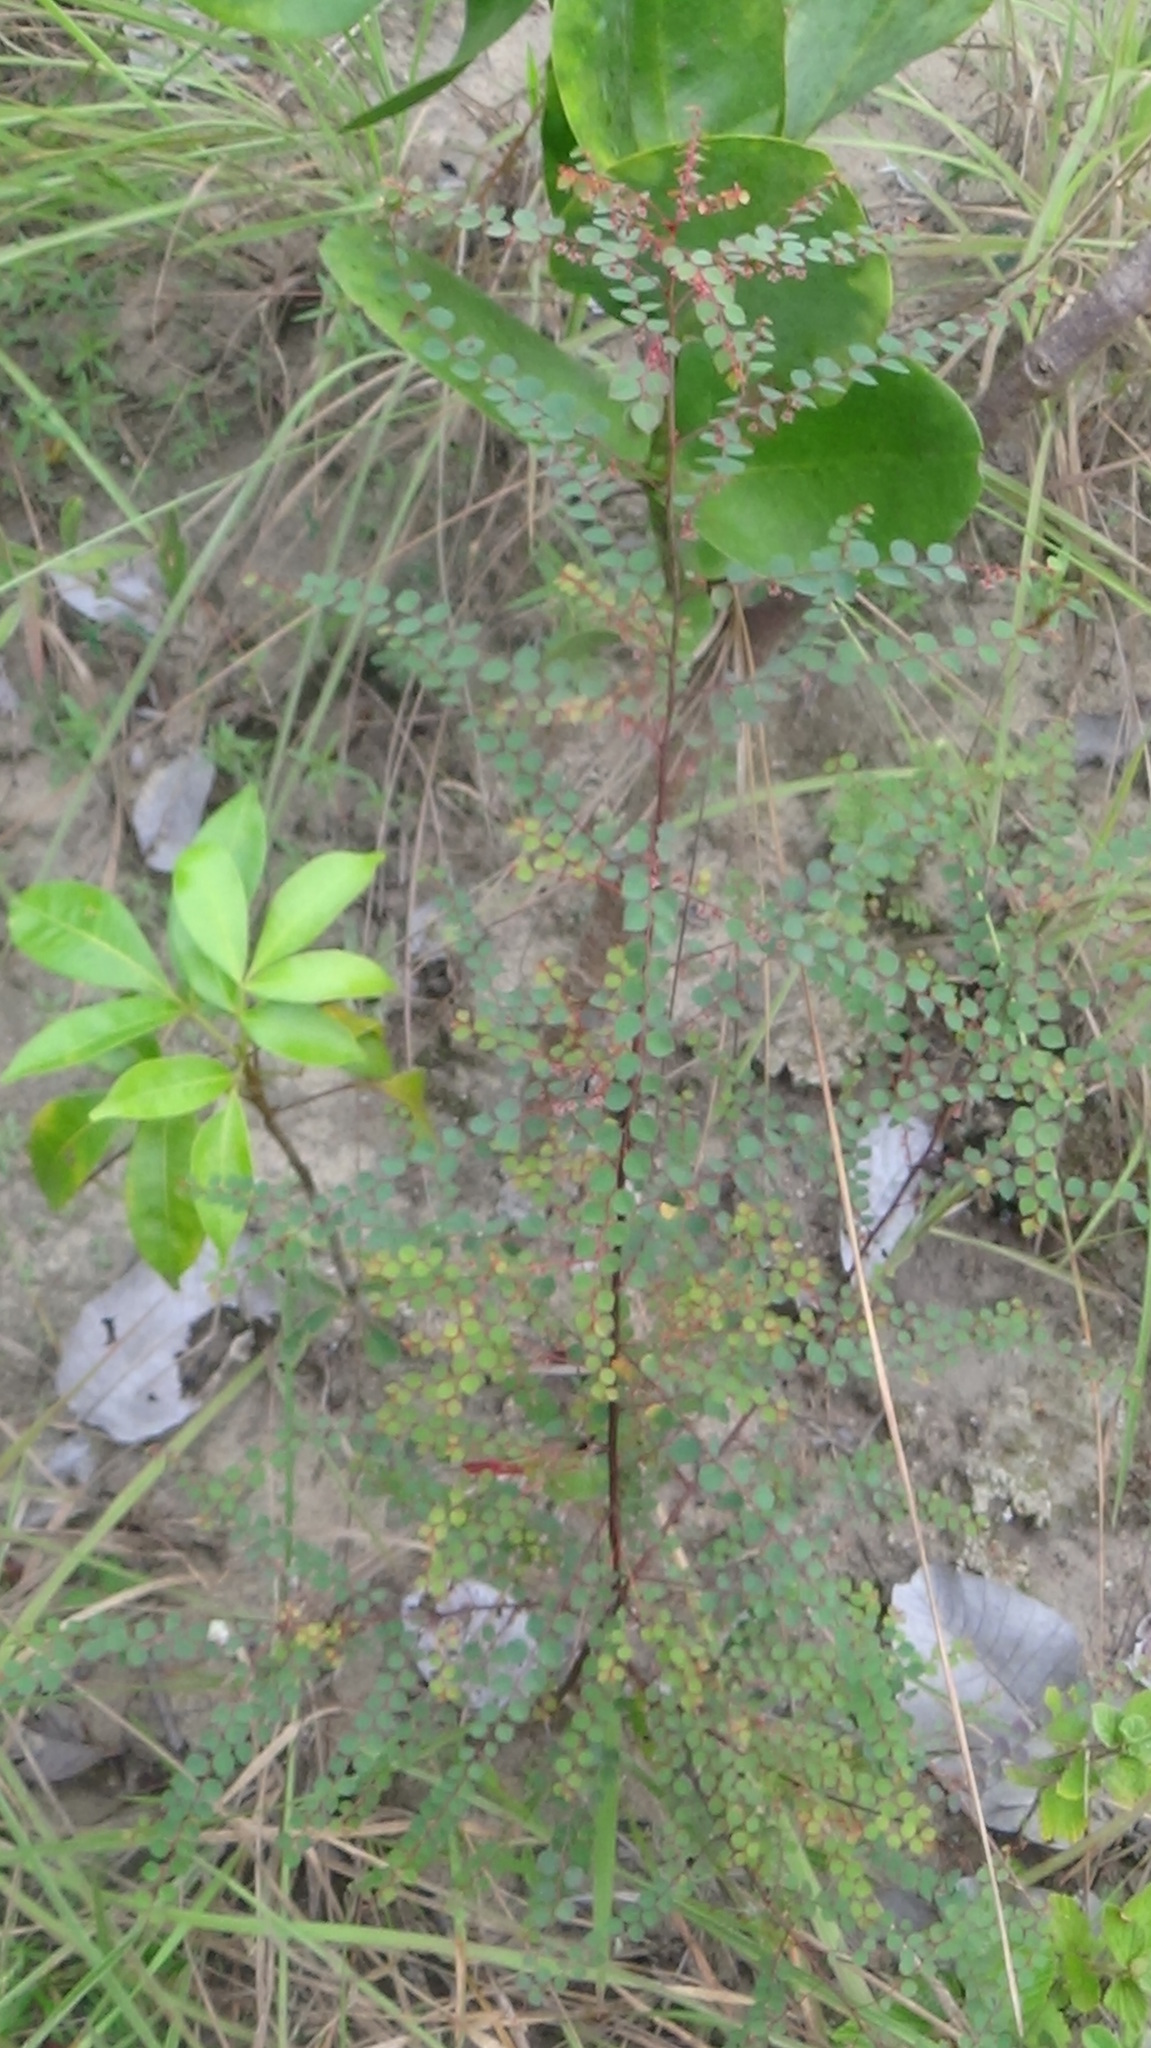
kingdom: Plantae
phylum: Tracheophyta
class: Magnoliopsida
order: Malpighiales
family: Phyllanthaceae
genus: Phyllanthus
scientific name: Phyllanthus orbiculatus
